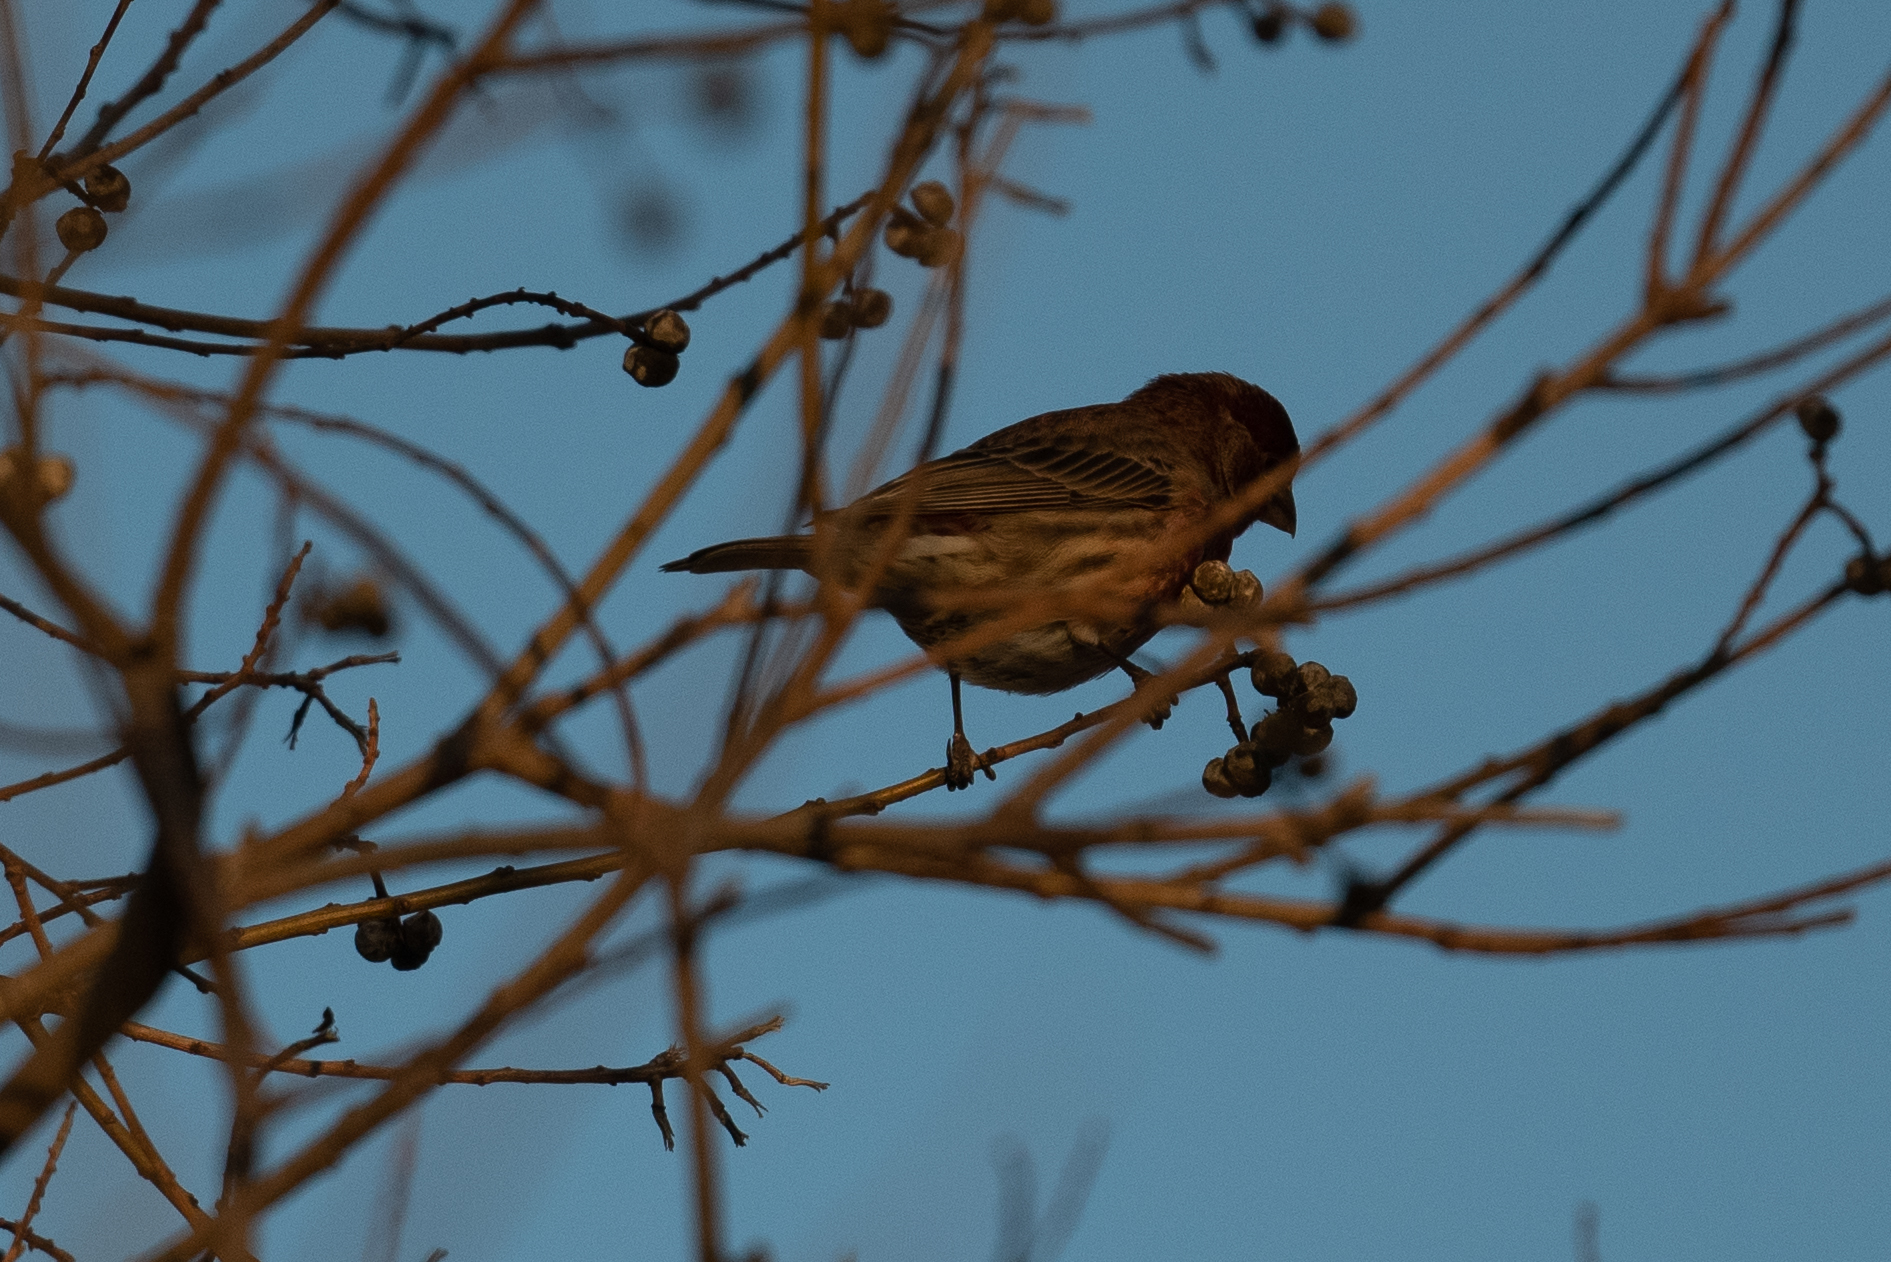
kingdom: Animalia
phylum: Chordata
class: Aves
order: Passeriformes
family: Fringillidae
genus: Haemorhous
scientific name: Haemorhous mexicanus
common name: House finch
